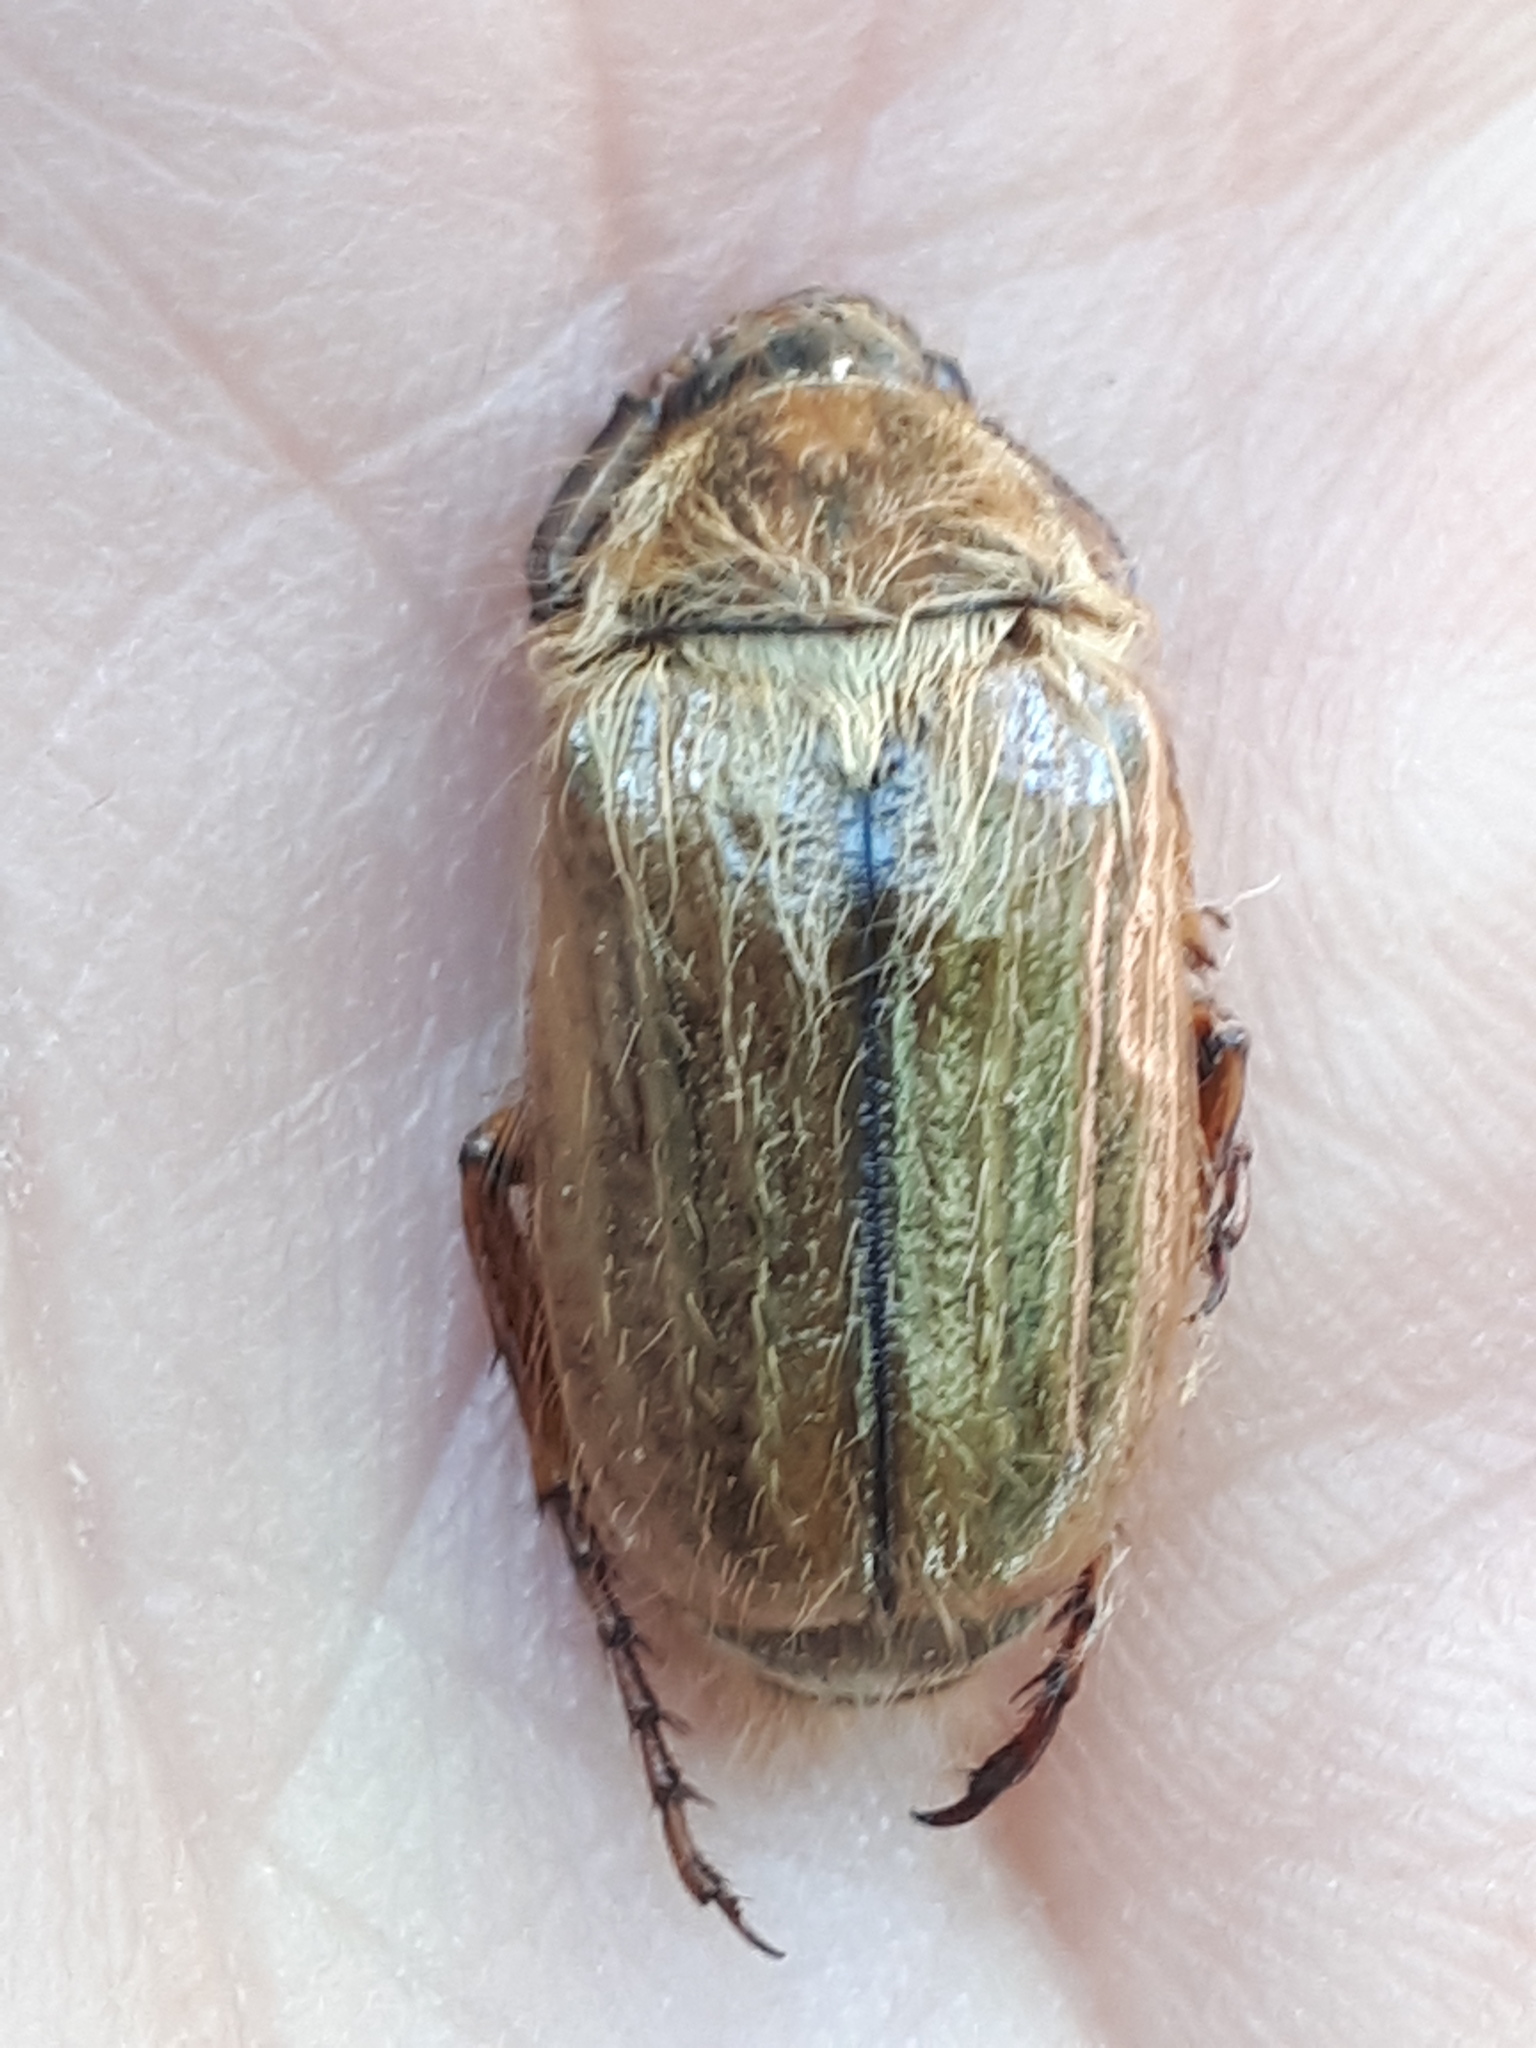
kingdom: Animalia
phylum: Arthropoda
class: Insecta
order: Coleoptera
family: Scarabaeidae
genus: Amphimallon
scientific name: Amphimallon solstitiale
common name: Summer chafer
